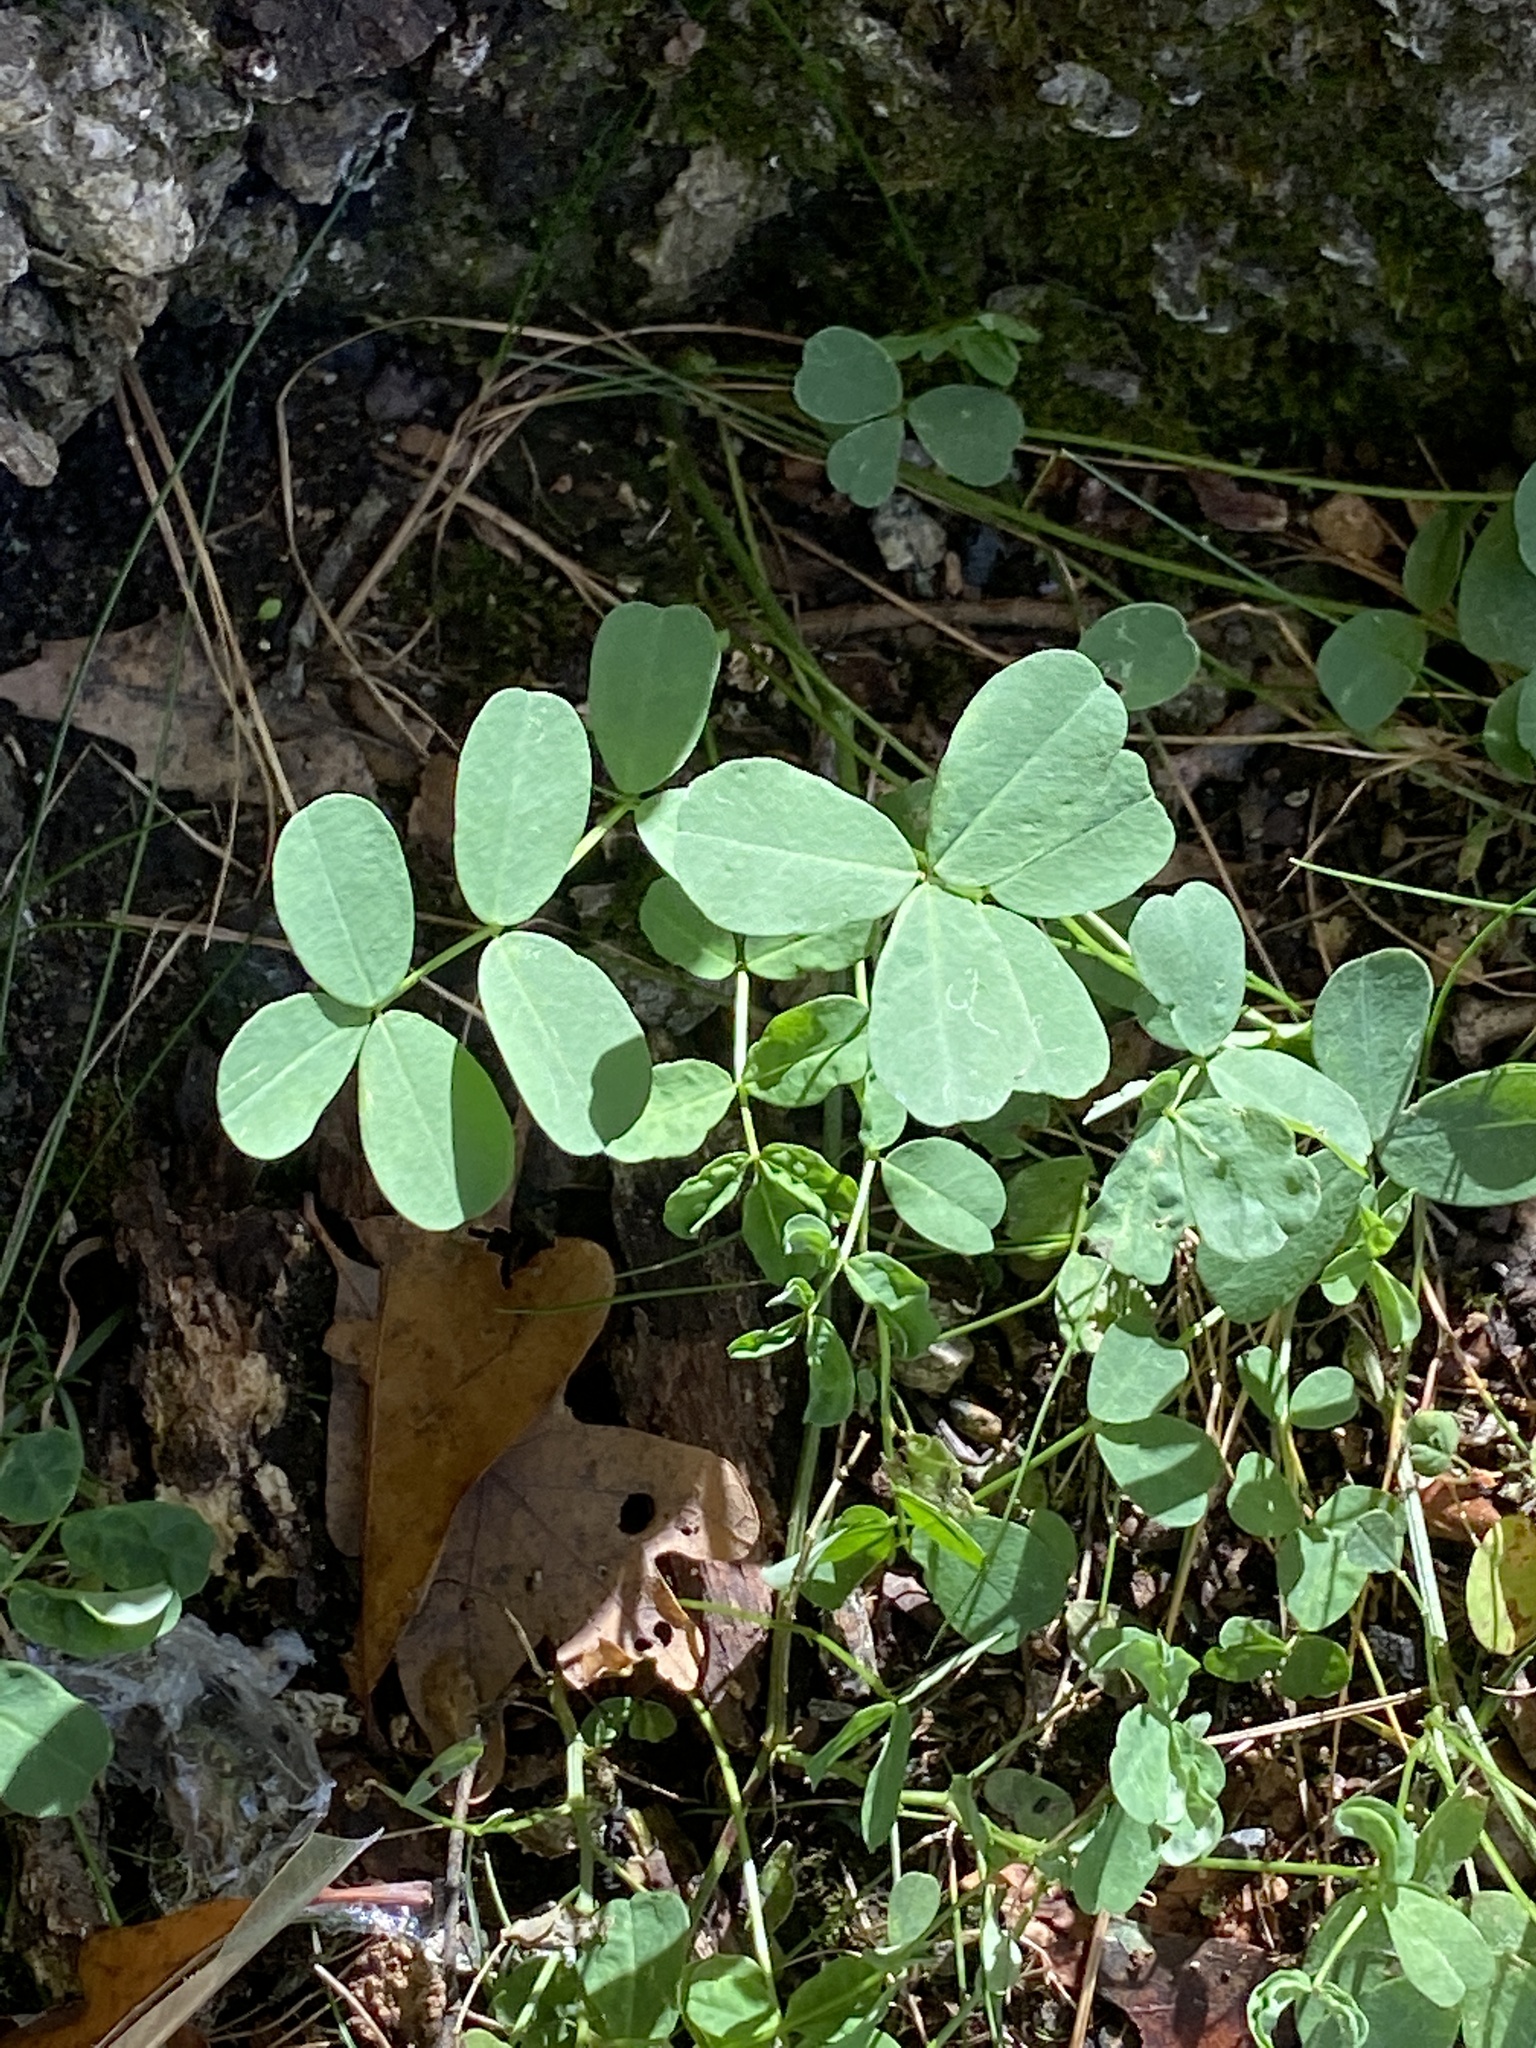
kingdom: Plantae
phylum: Tracheophyta
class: Magnoliopsida
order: Fabales
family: Fabaceae
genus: Coronilla
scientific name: Coronilla varia
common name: Crownvetch
